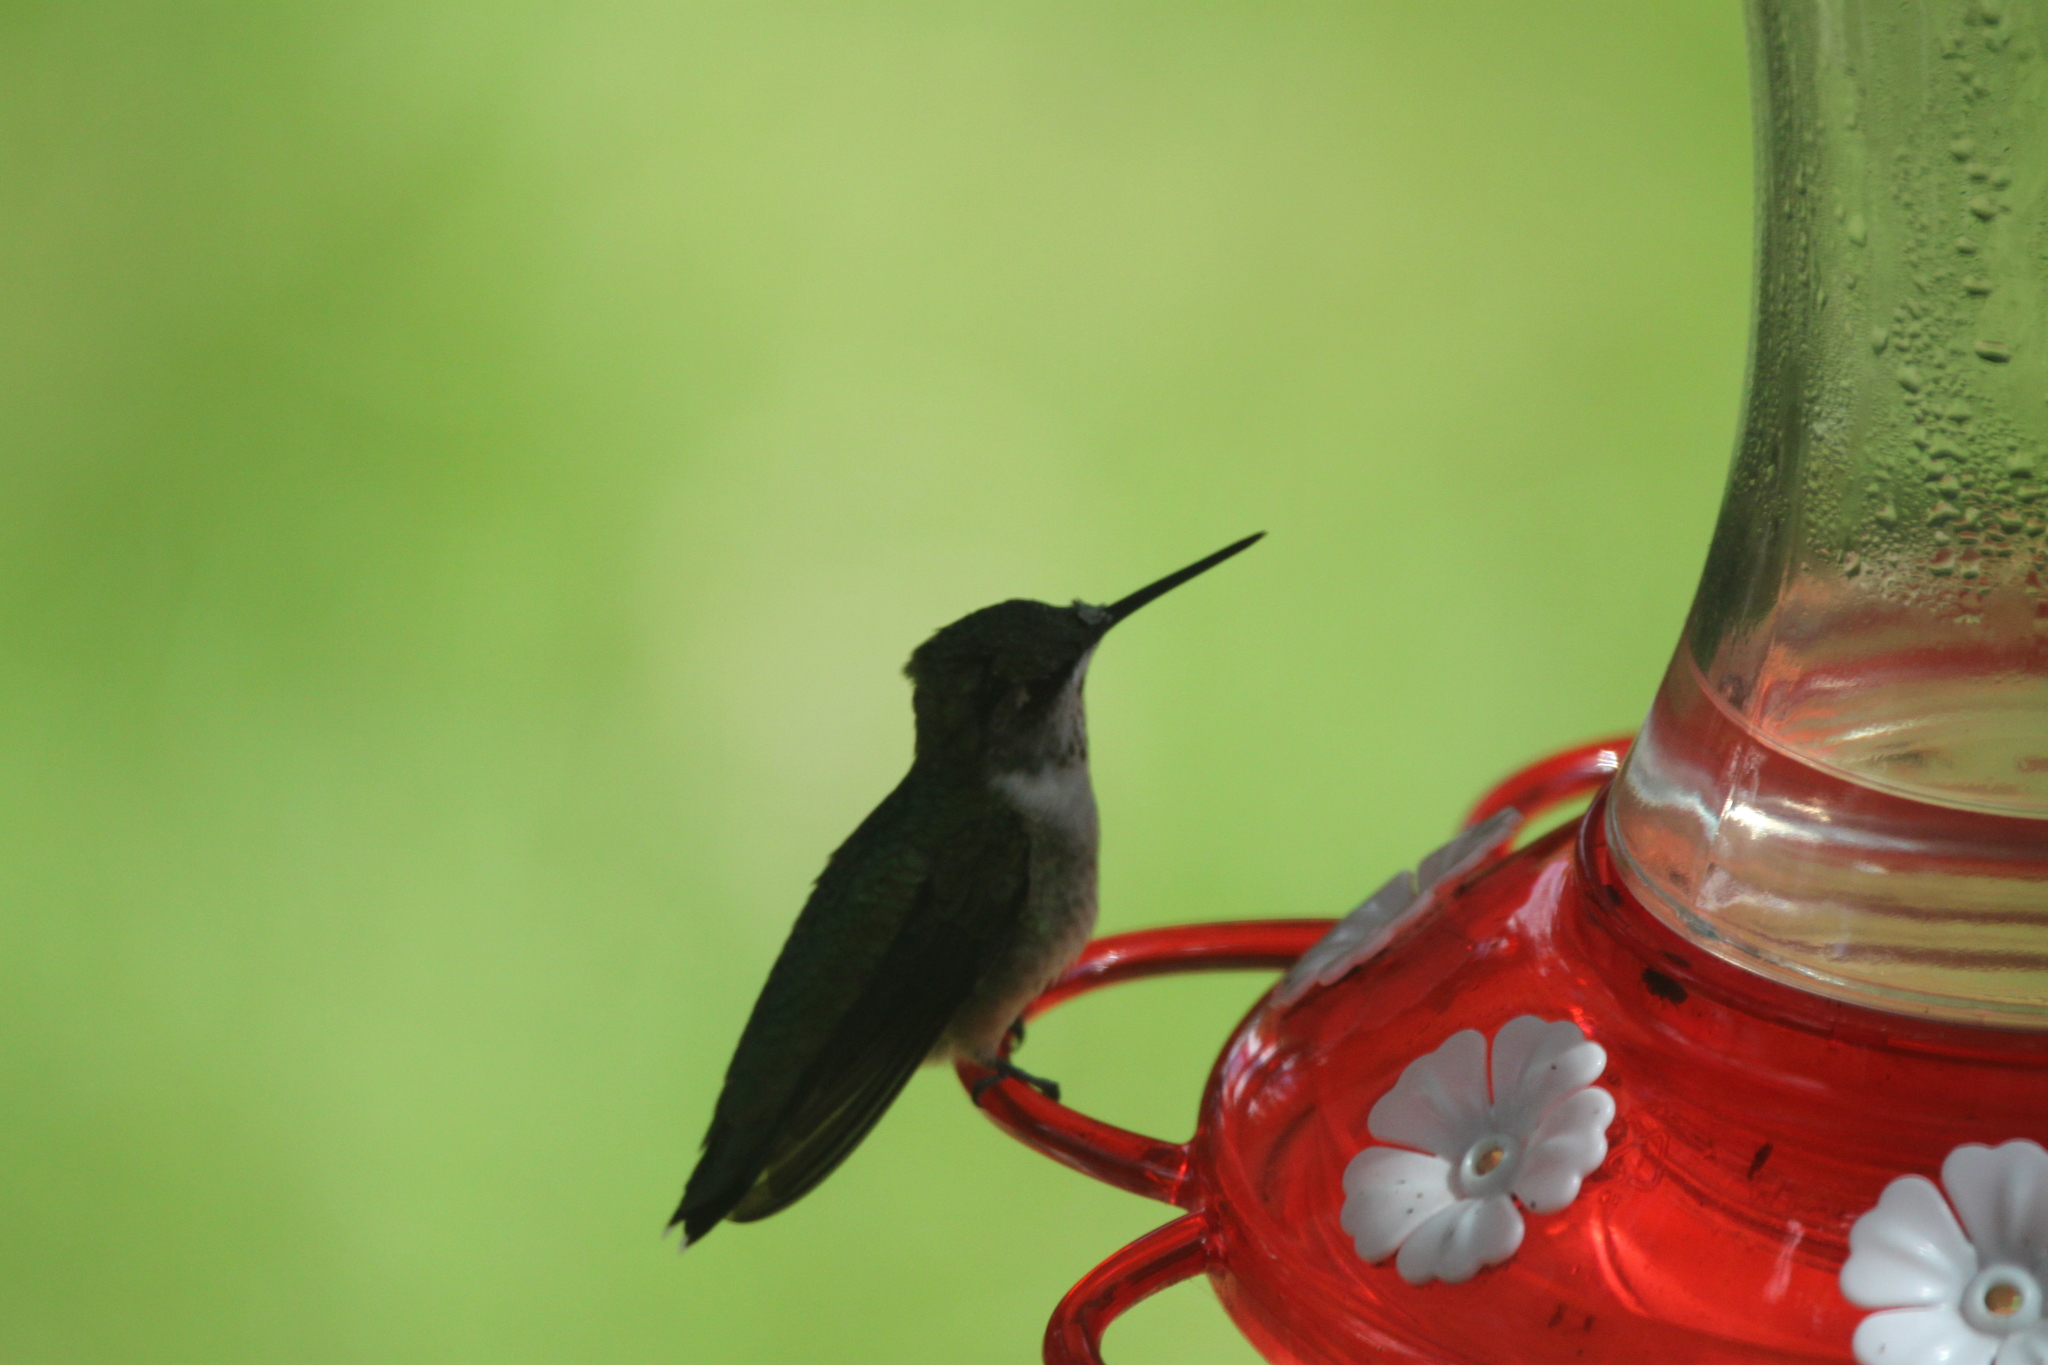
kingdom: Animalia
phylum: Chordata
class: Aves
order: Apodiformes
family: Trochilidae
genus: Archilochus
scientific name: Archilochus colubris
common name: Ruby-throated hummingbird
